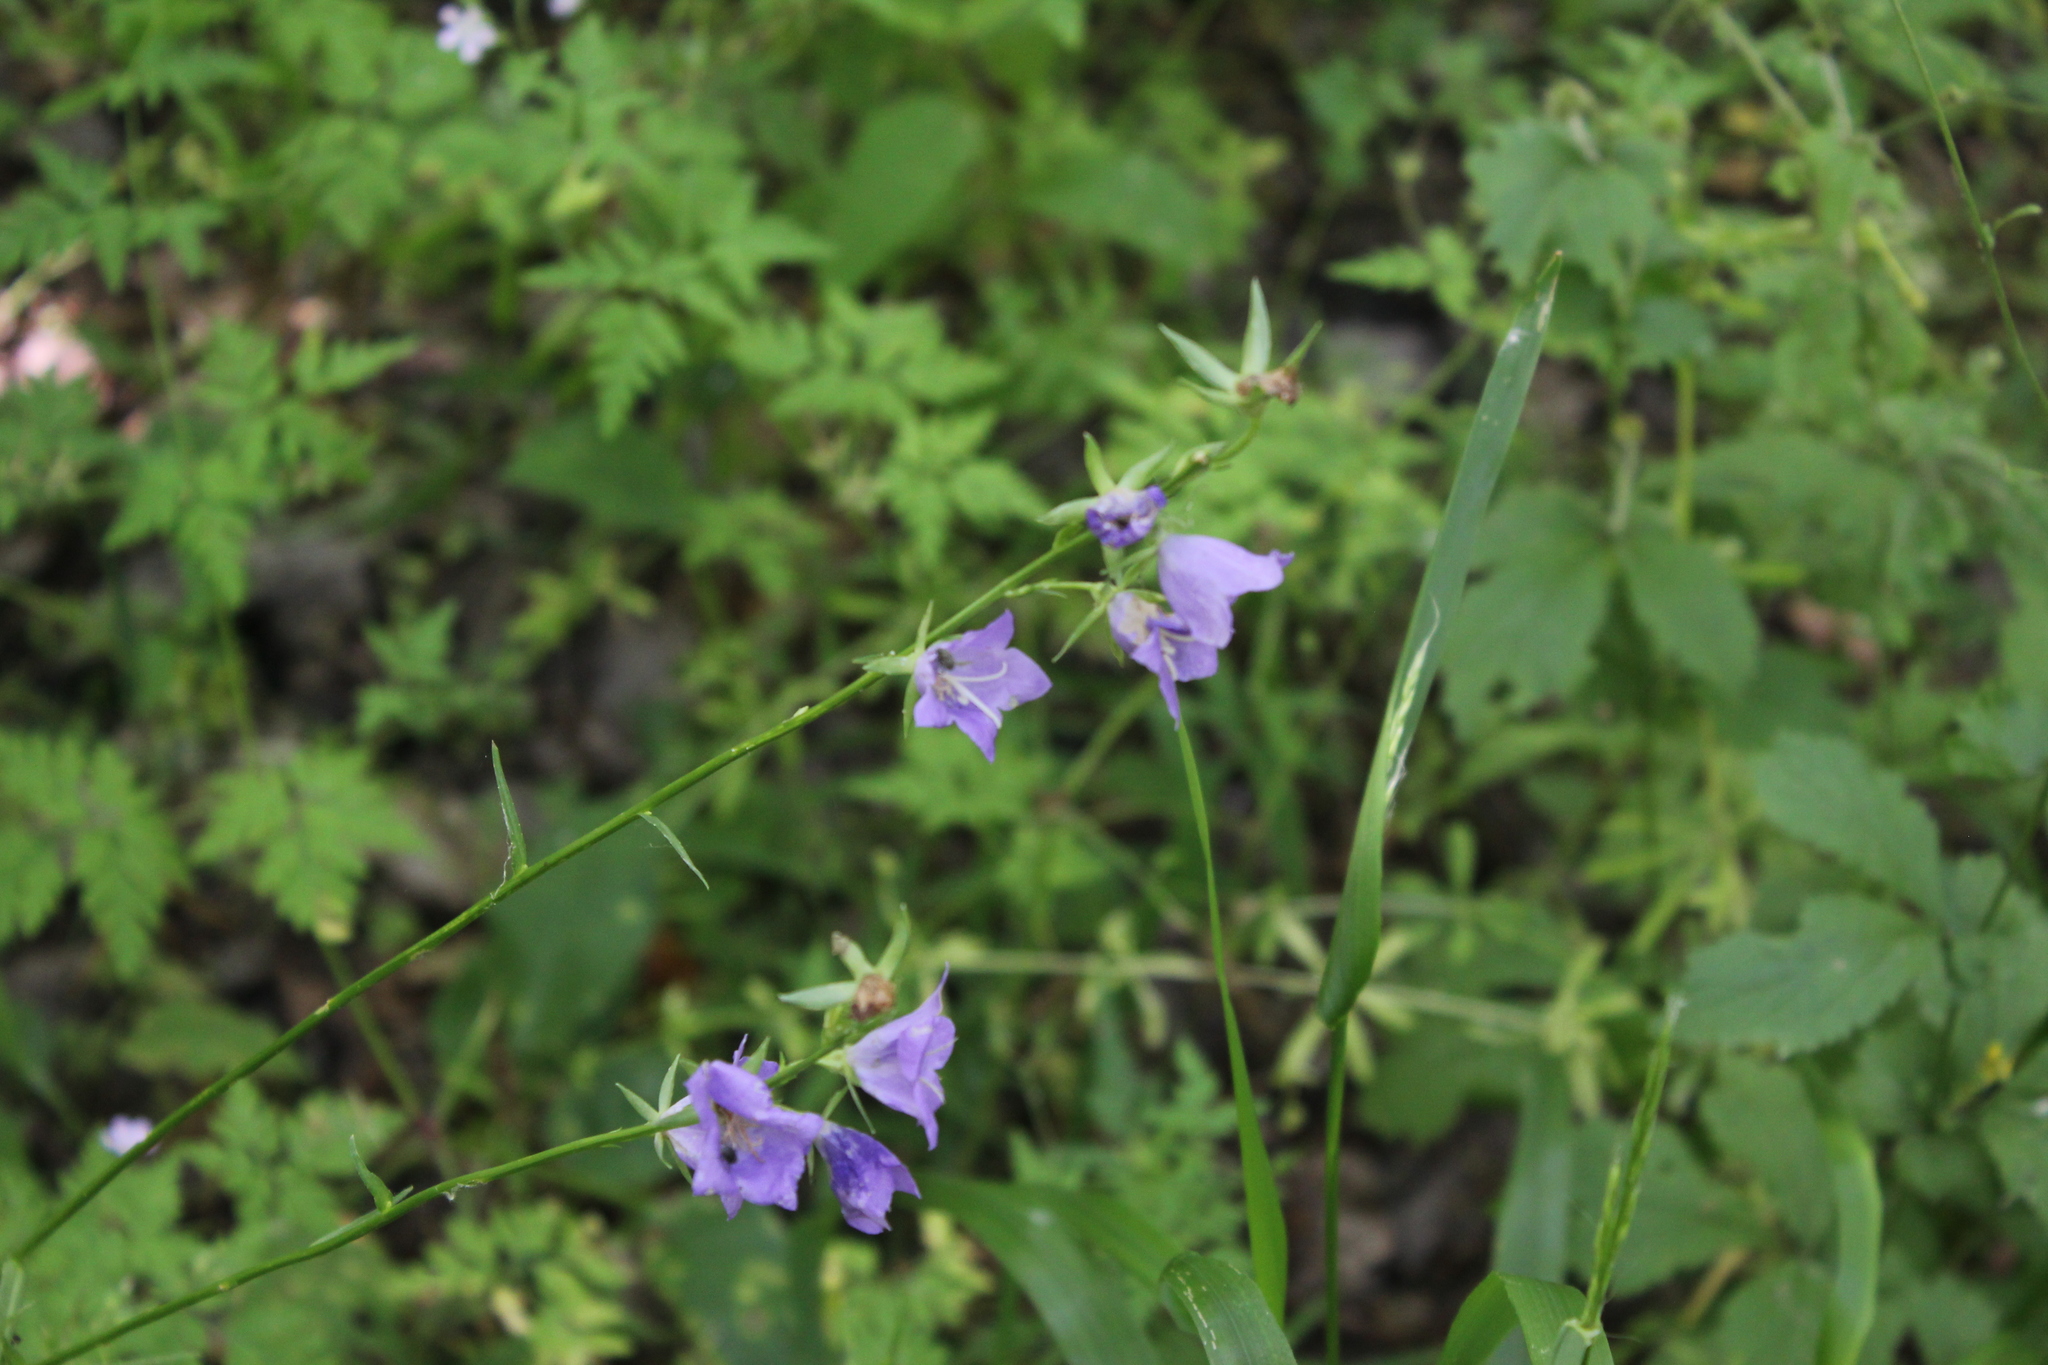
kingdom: Plantae
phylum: Tracheophyta
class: Magnoliopsida
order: Asterales
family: Campanulaceae
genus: Campanula
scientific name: Campanula persicifolia
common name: Peach-leaved bellflower
